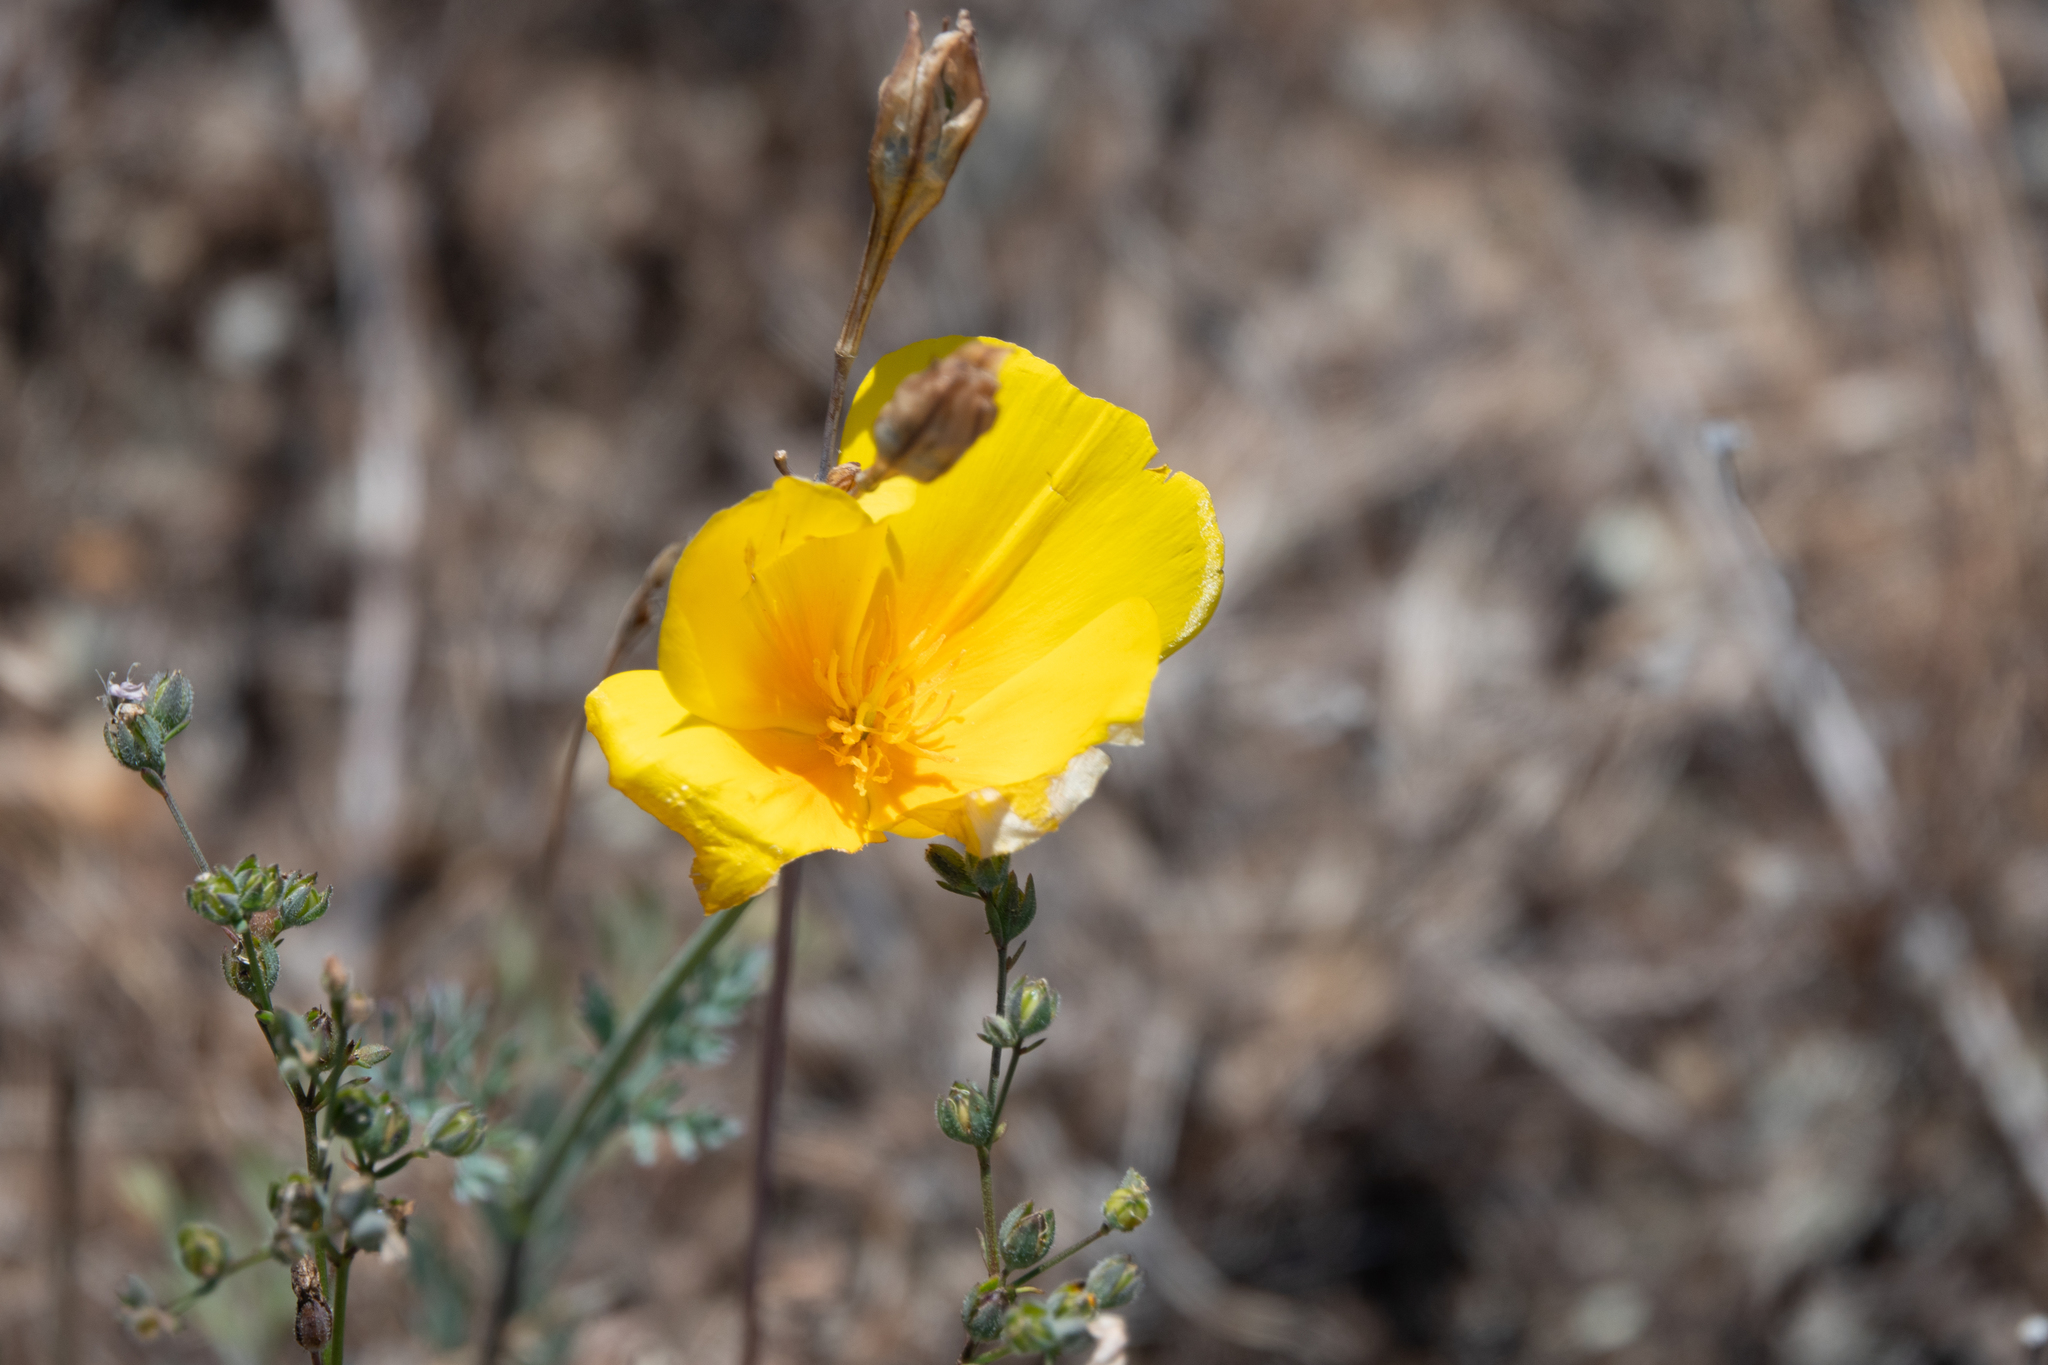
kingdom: Plantae
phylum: Tracheophyta
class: Magnoliopsida
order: Ranunculales
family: Papaveraceae
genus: Eschscholzia
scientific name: Eschscholzia californica
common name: California poppy
